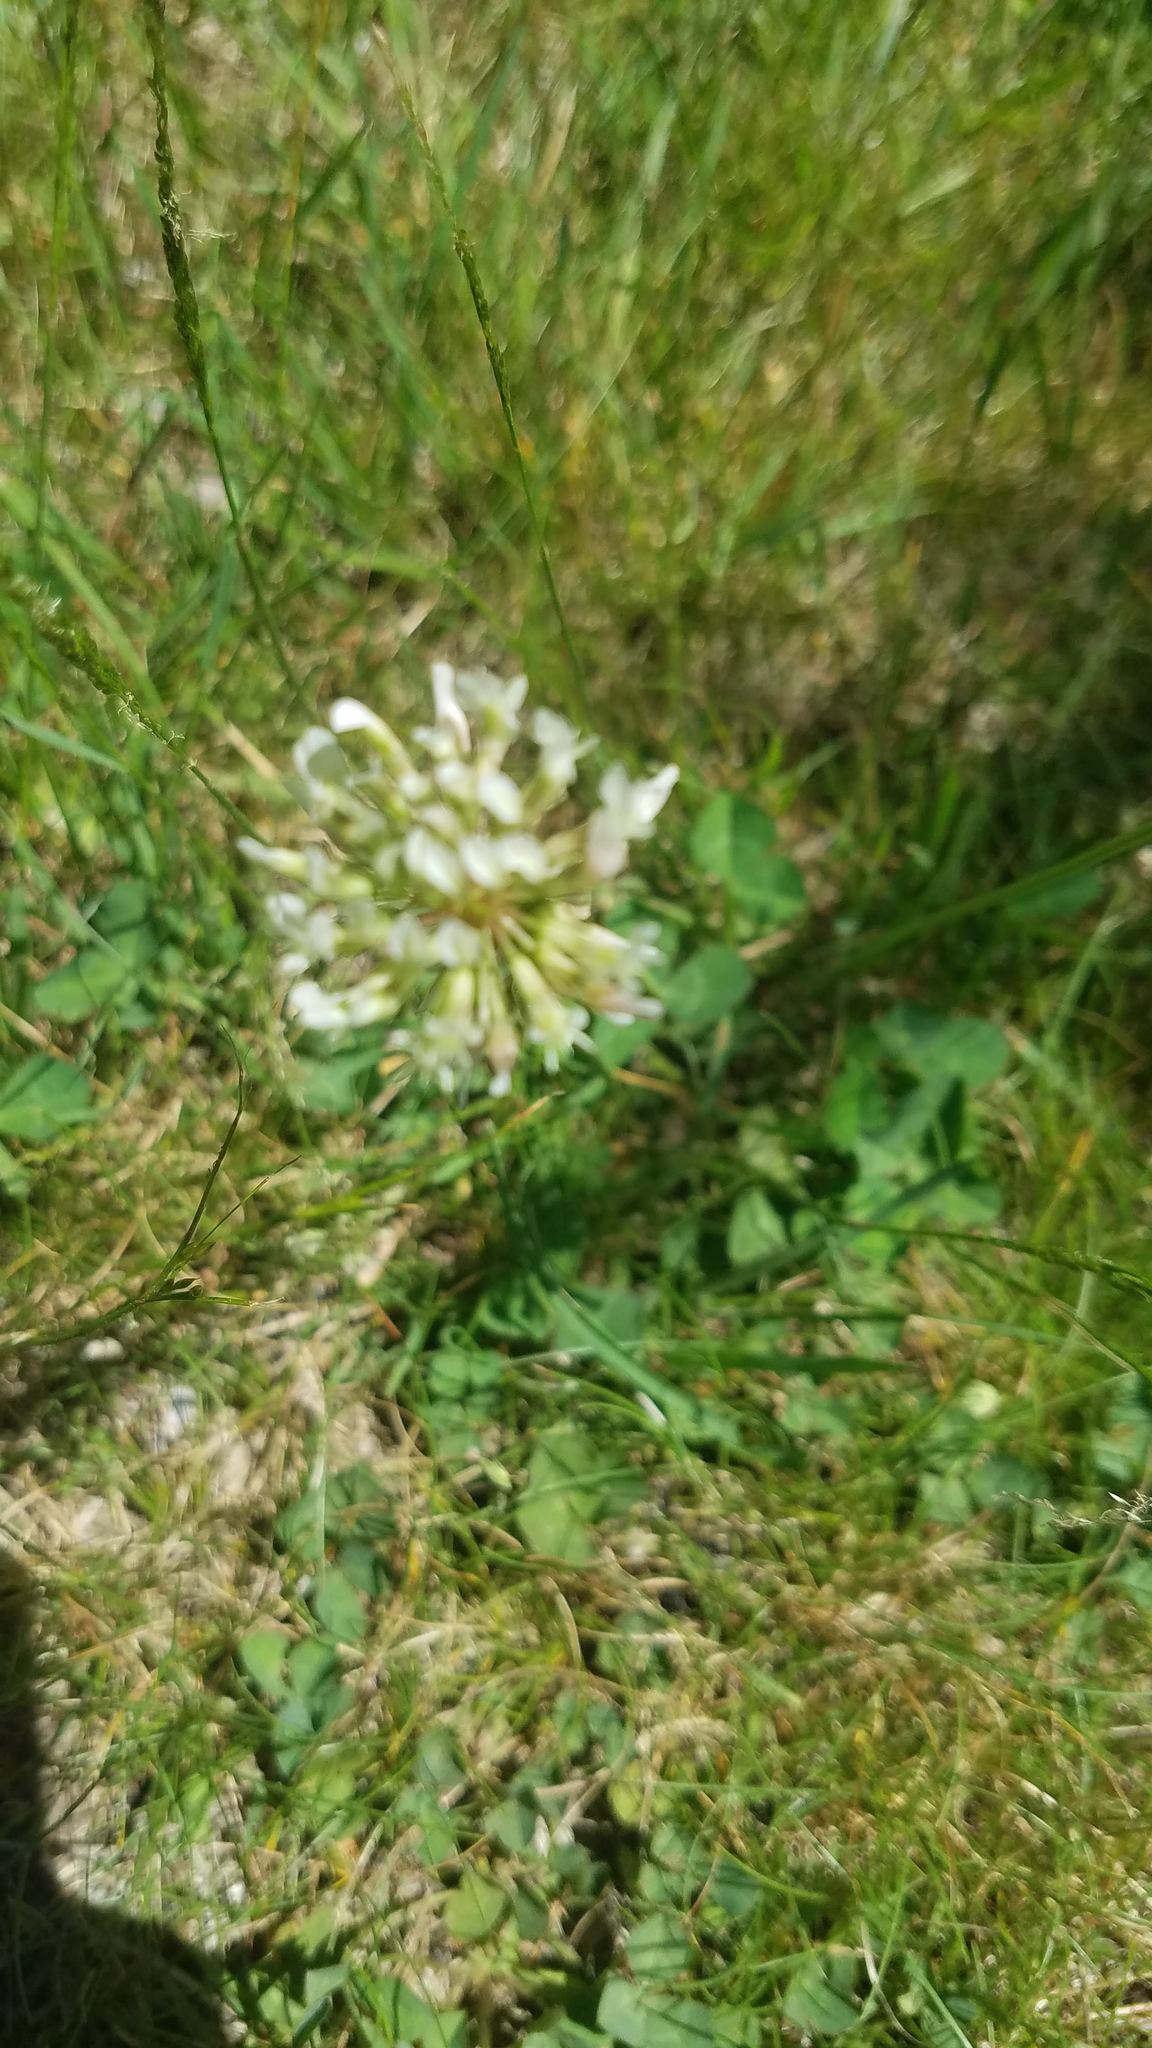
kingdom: Plantae
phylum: Tracheophyta
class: Magnoliopsida
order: Fabales
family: Fabaceae
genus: Trifolium
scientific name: Trifolium repens
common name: White clover
